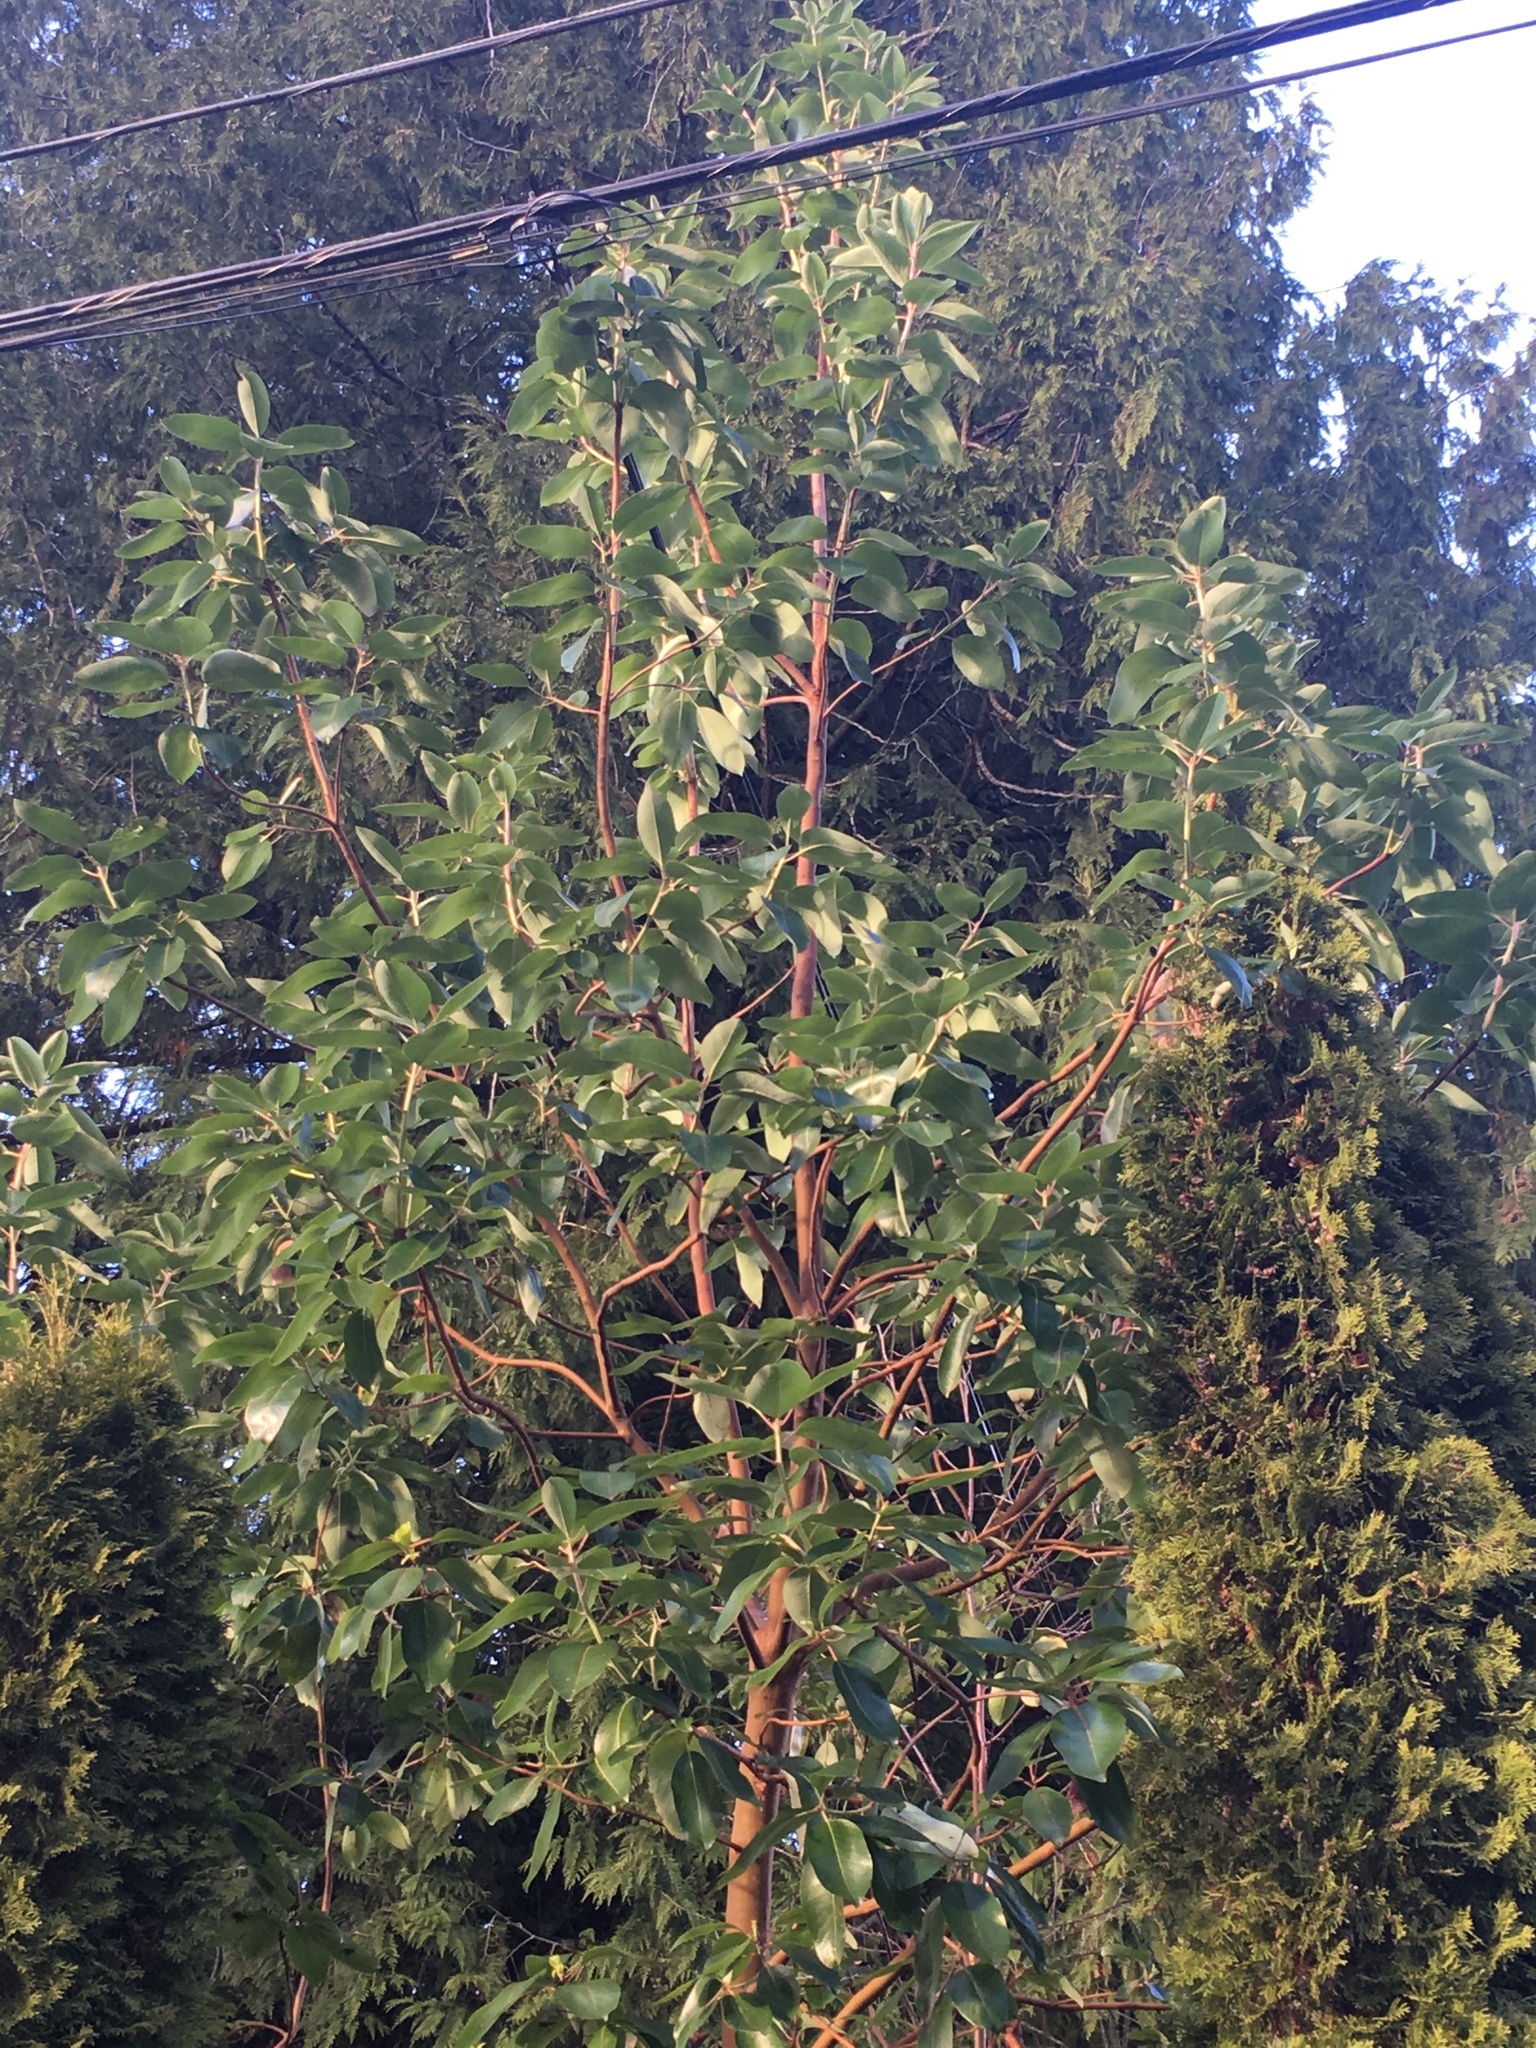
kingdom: Plantae
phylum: Tracheophyta
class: Magnoliopsida
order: Ericales
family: Ericaceae
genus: Arbutus
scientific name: Arbutus menziesii
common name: Pacific madrone
